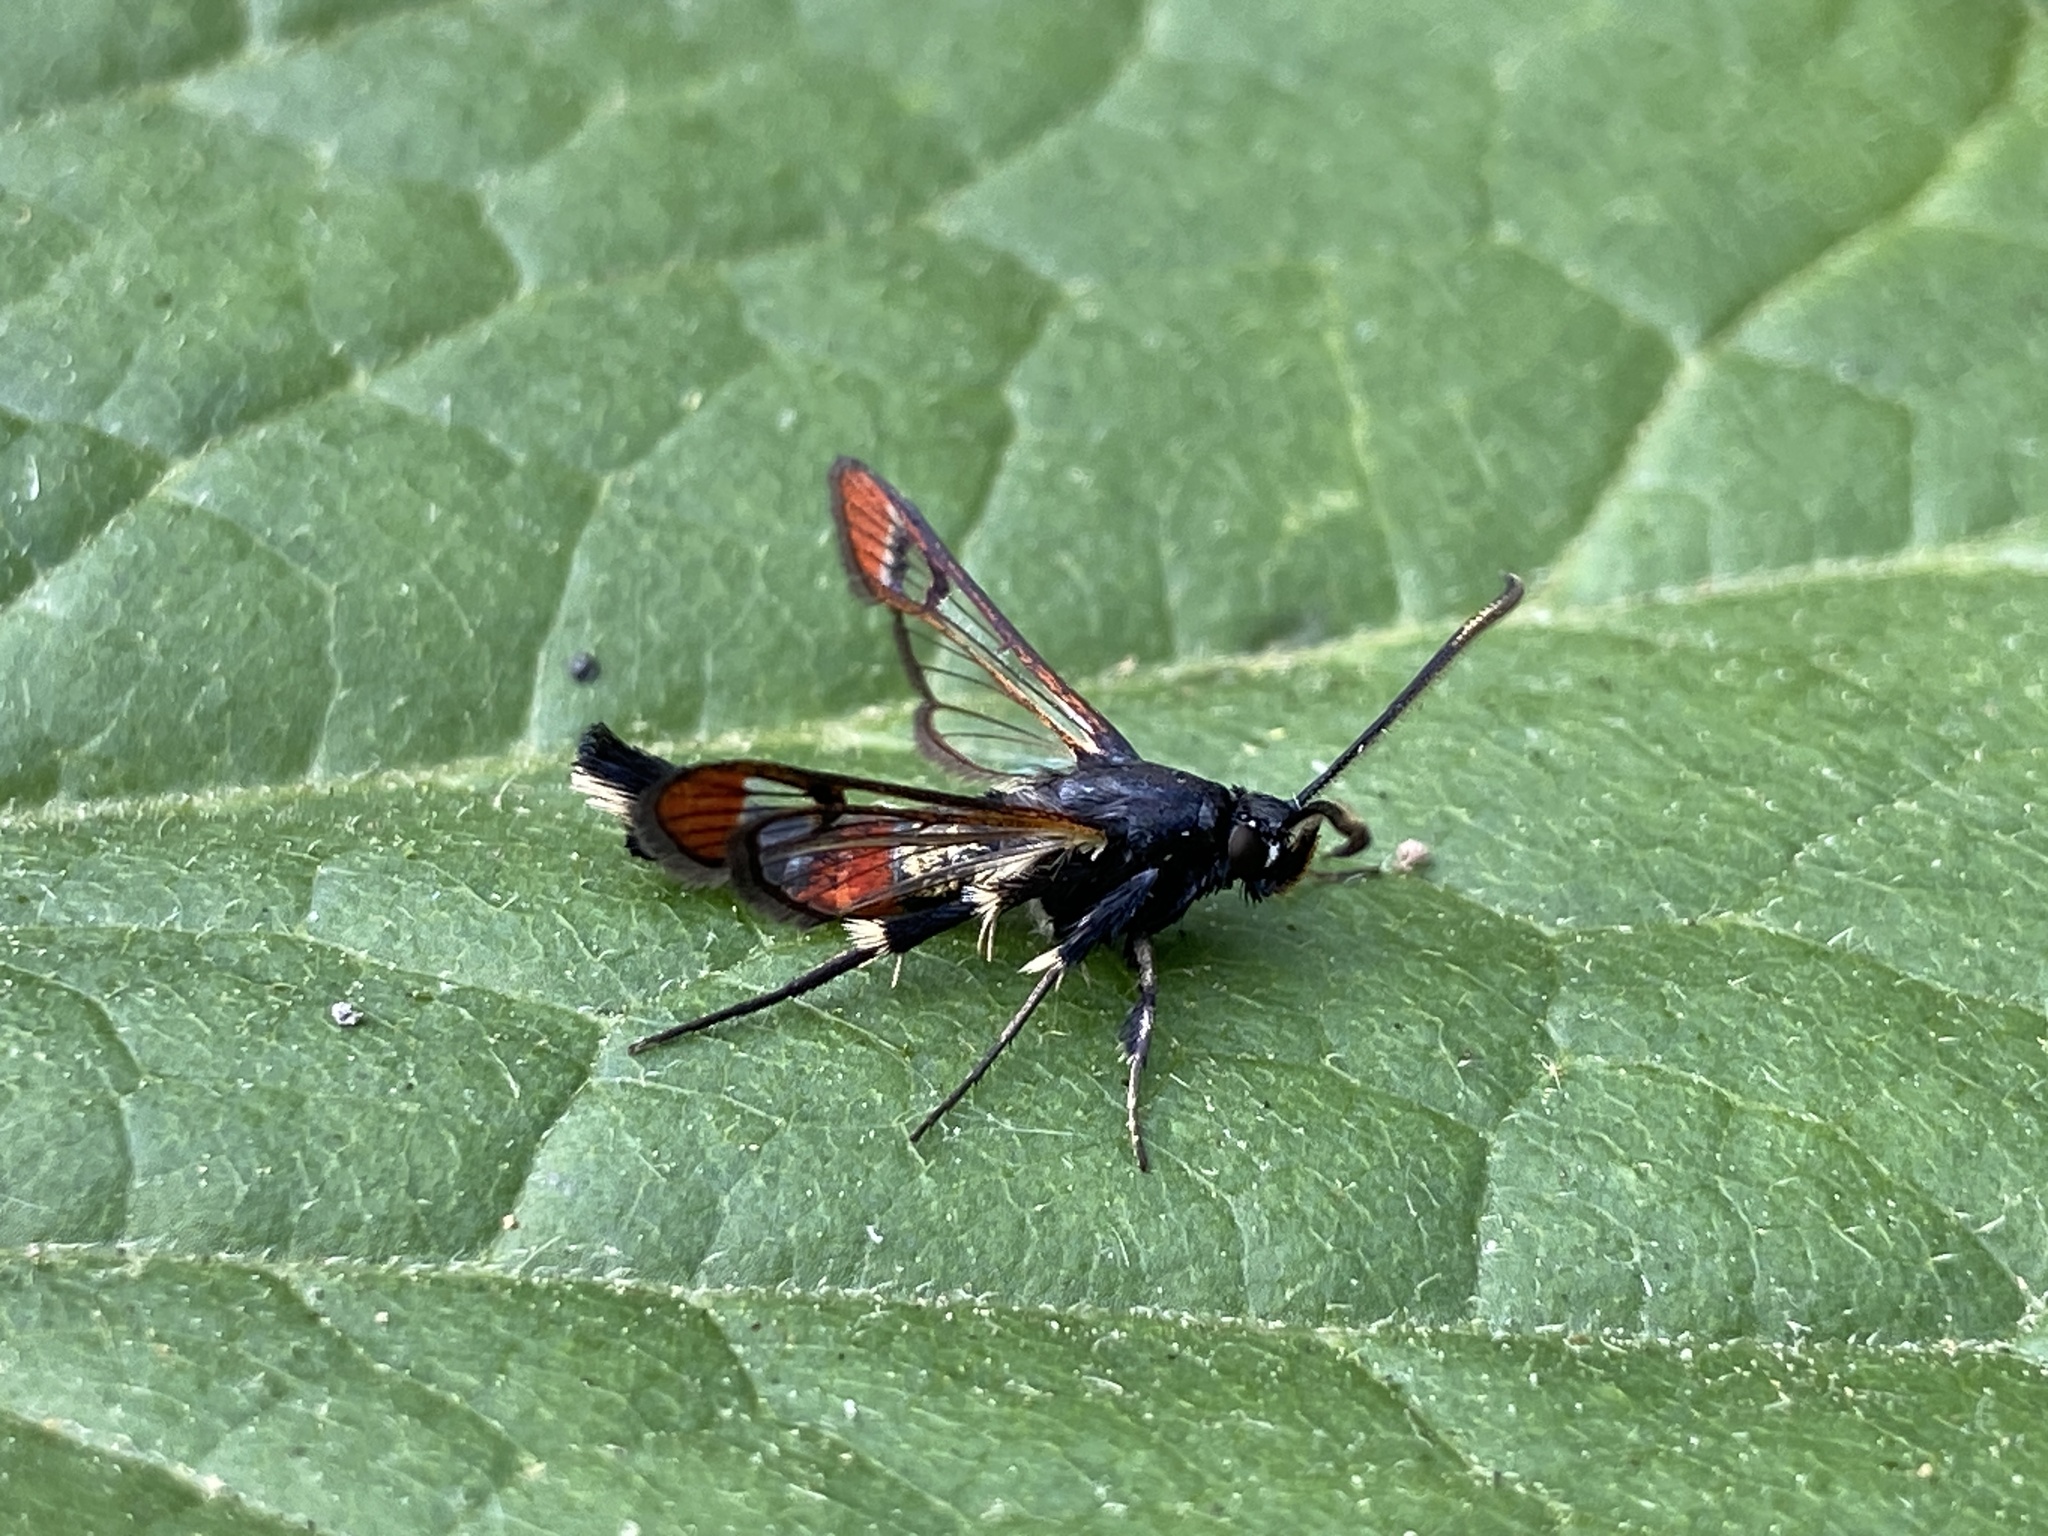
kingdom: Animalia
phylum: Arthropoda
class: Insecta
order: Lepidoptera
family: Sesiidae
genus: Synanthedon
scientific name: Synanthedon formicaeformis
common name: Red-tipped clearwing
